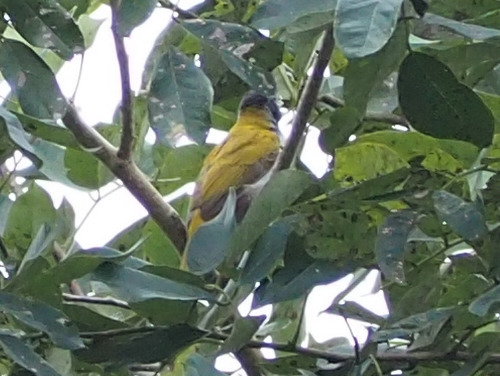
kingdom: Animalia
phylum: Chordata
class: Aves
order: Passeriformes
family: Thraupidae
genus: Saltator
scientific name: Saltator atriceps
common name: Black-headed saltator
